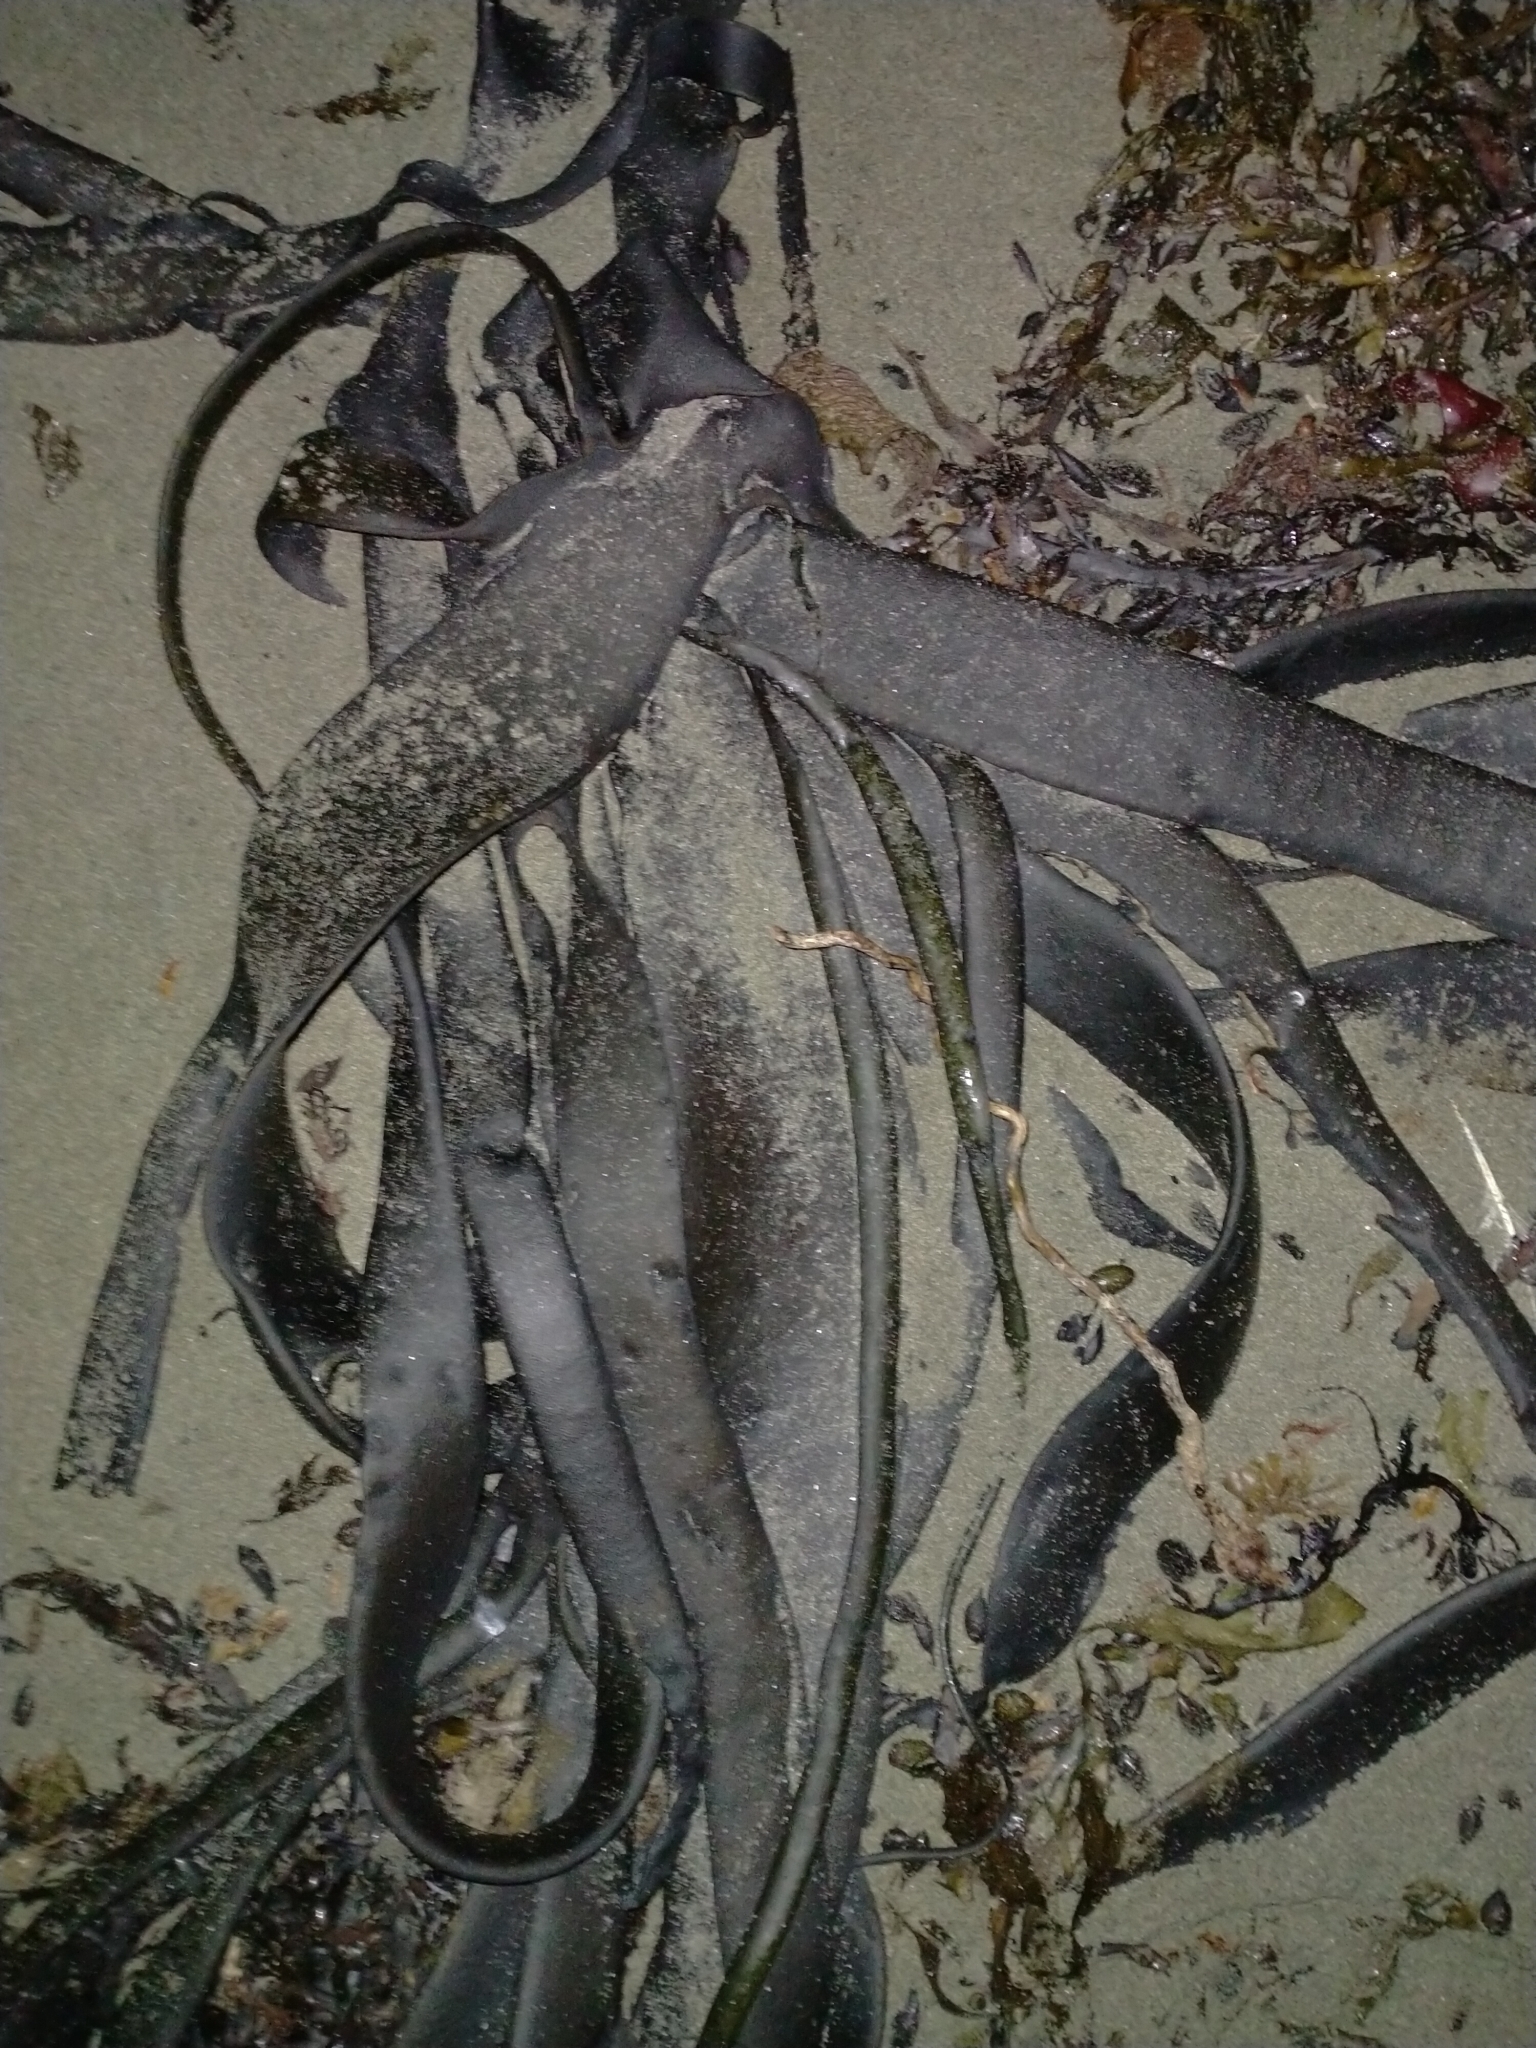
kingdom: Chromista
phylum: Ochrophyta
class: Phaeophyceae
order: Fucales
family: Durvillaeaceae
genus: Durvillaea
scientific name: Durvillaea antarctica
